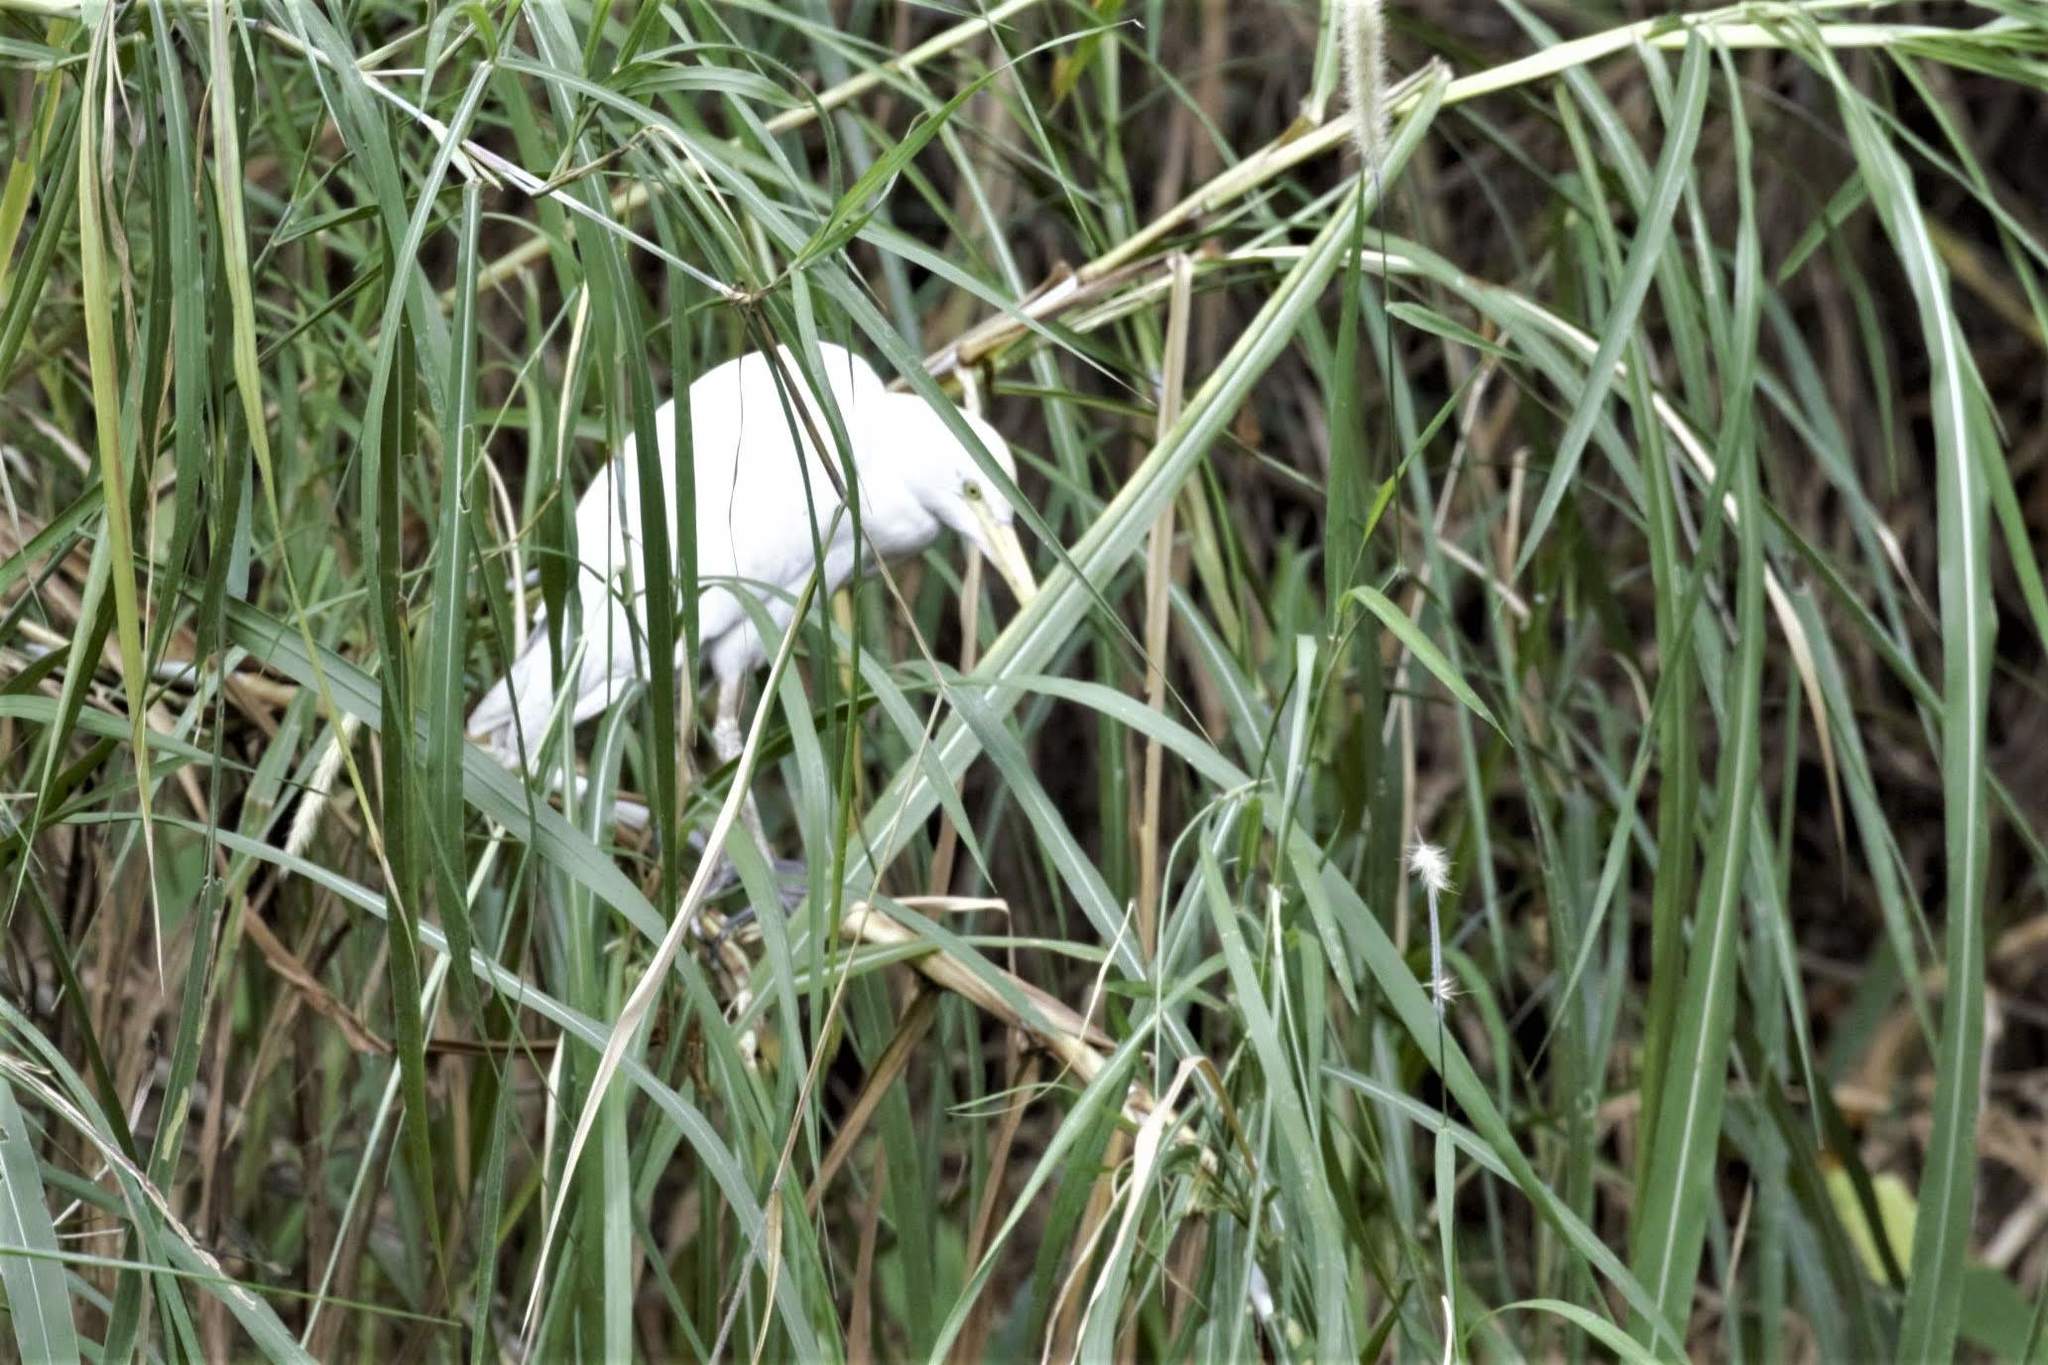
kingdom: Animalia
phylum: Chordata
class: Aves
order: Pelecaniformes
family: Ardeidae
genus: Bubulcus
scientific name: Bubulcus ibis
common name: Cattle egret
